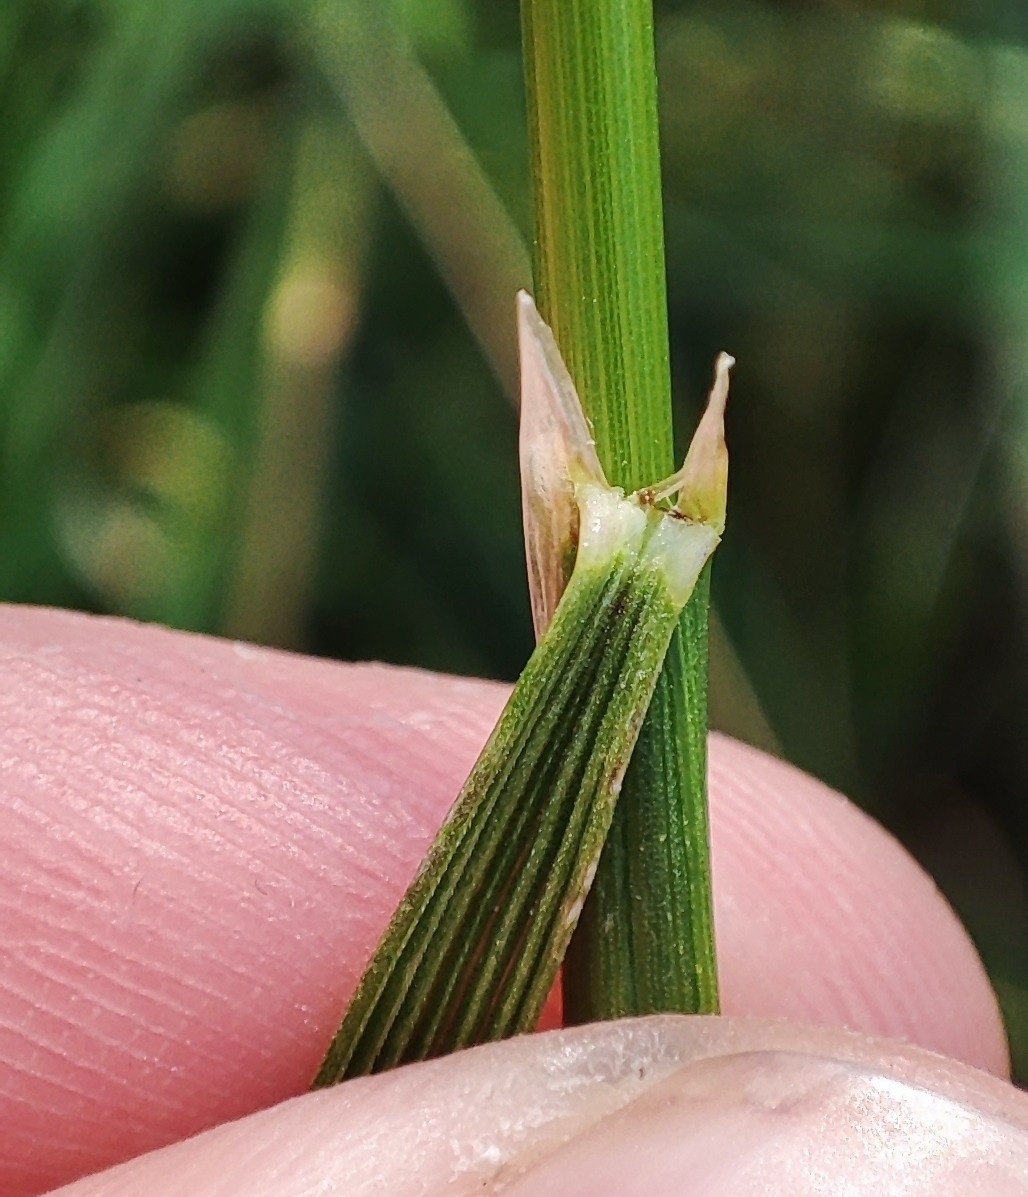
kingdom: Plantae
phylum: Tracheophyta
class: Liliopsida
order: Poales
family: Poaceae
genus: Deschampsia
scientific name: Deschampsia cespitosa
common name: Tufted hair-grass
